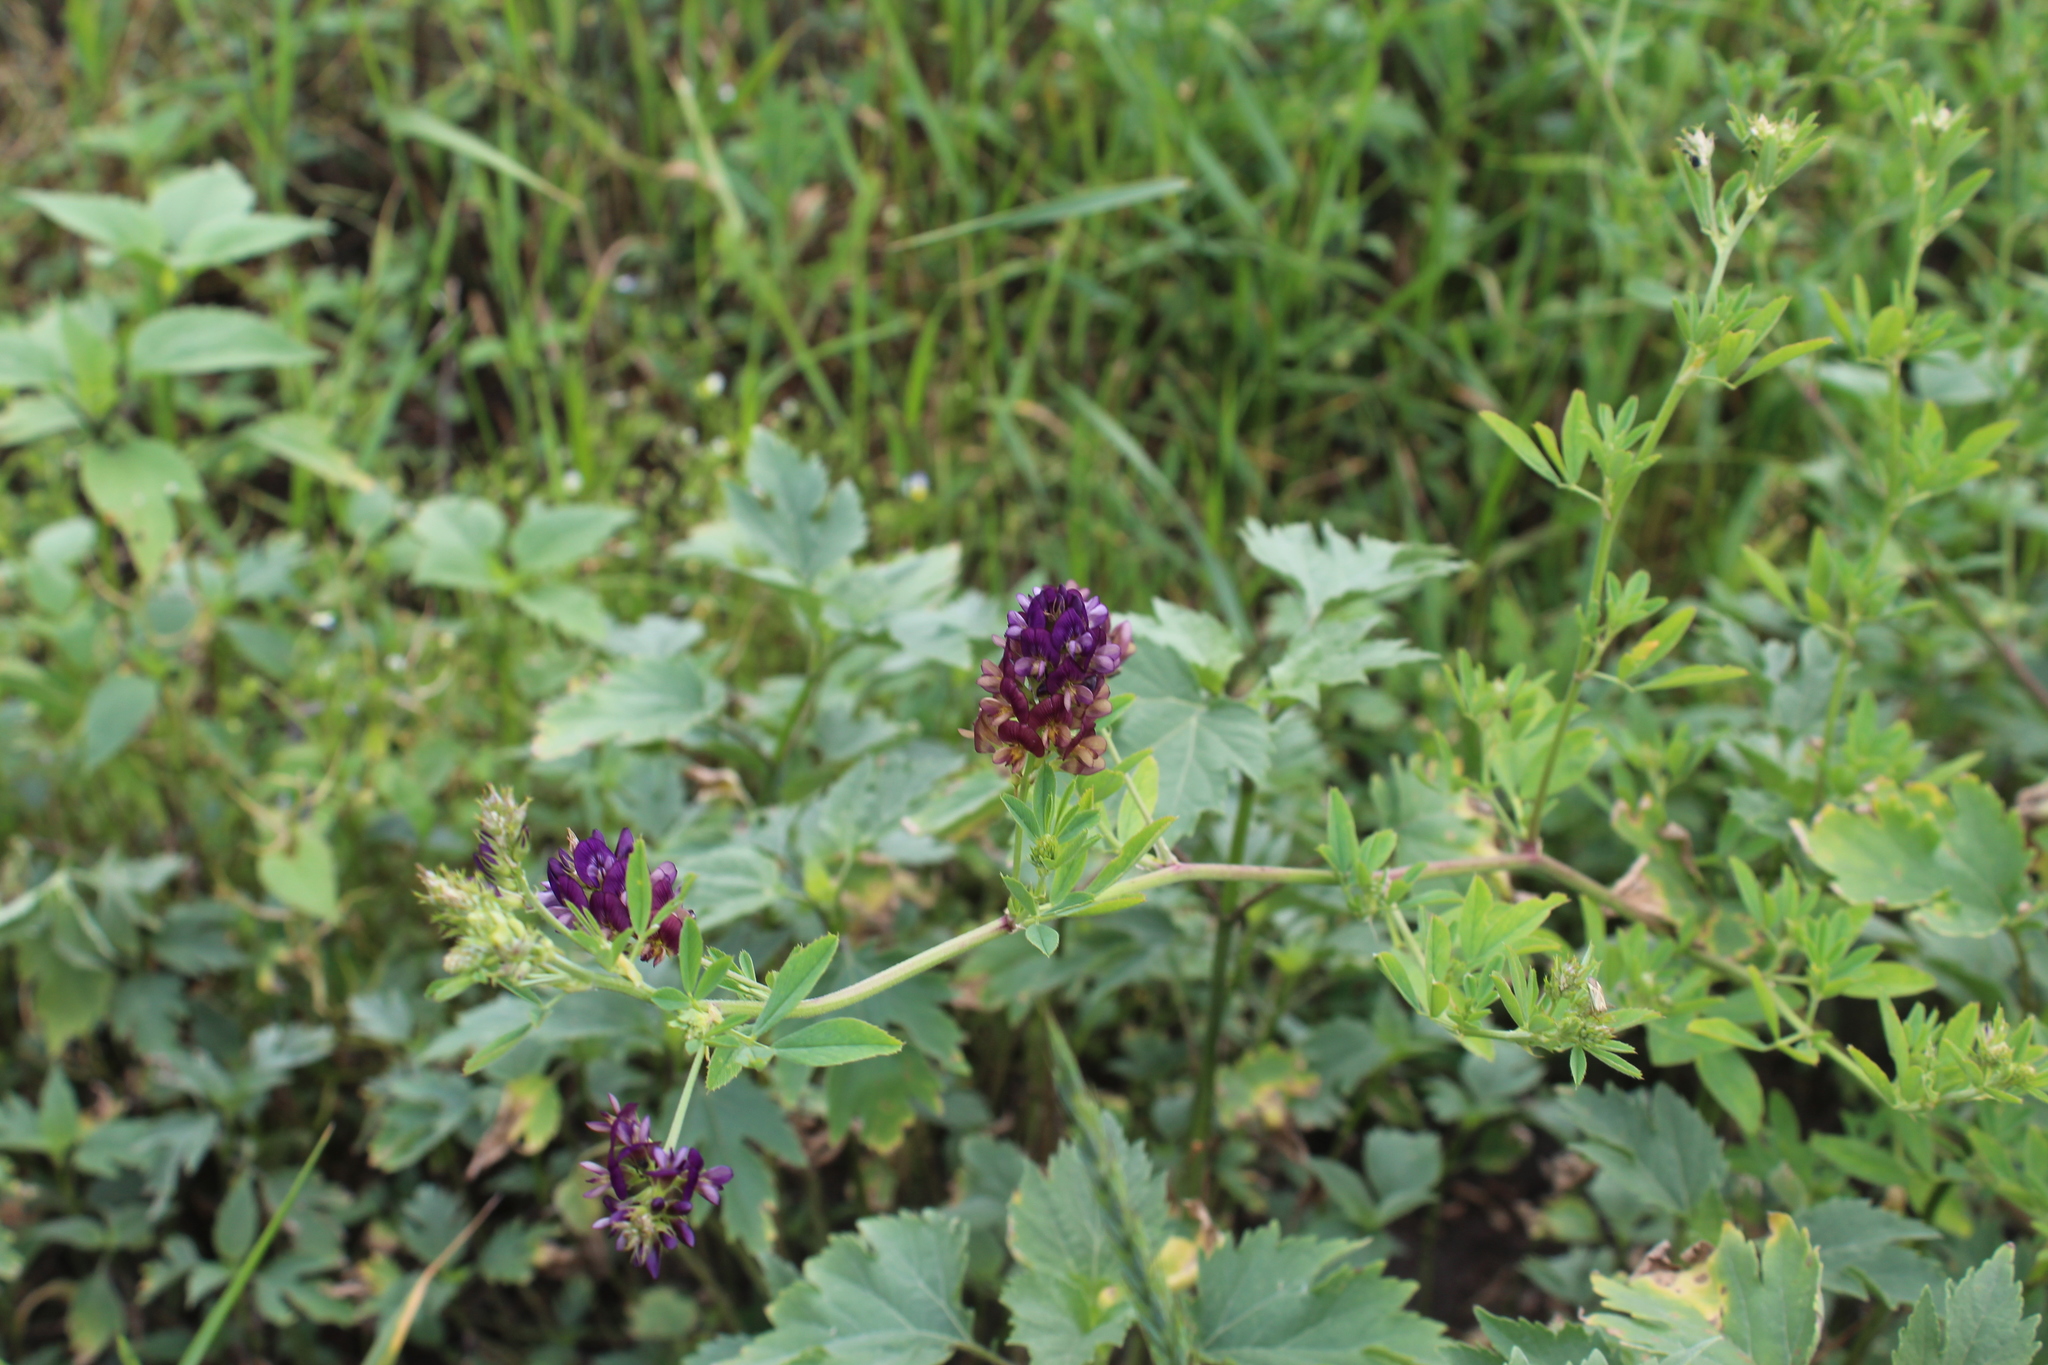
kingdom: Plantae
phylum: Tracheophyta
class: Magnoliopsida
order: Fabales
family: Fabaceae
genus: Medicago
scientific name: Medicago varia
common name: Sand lucerne
